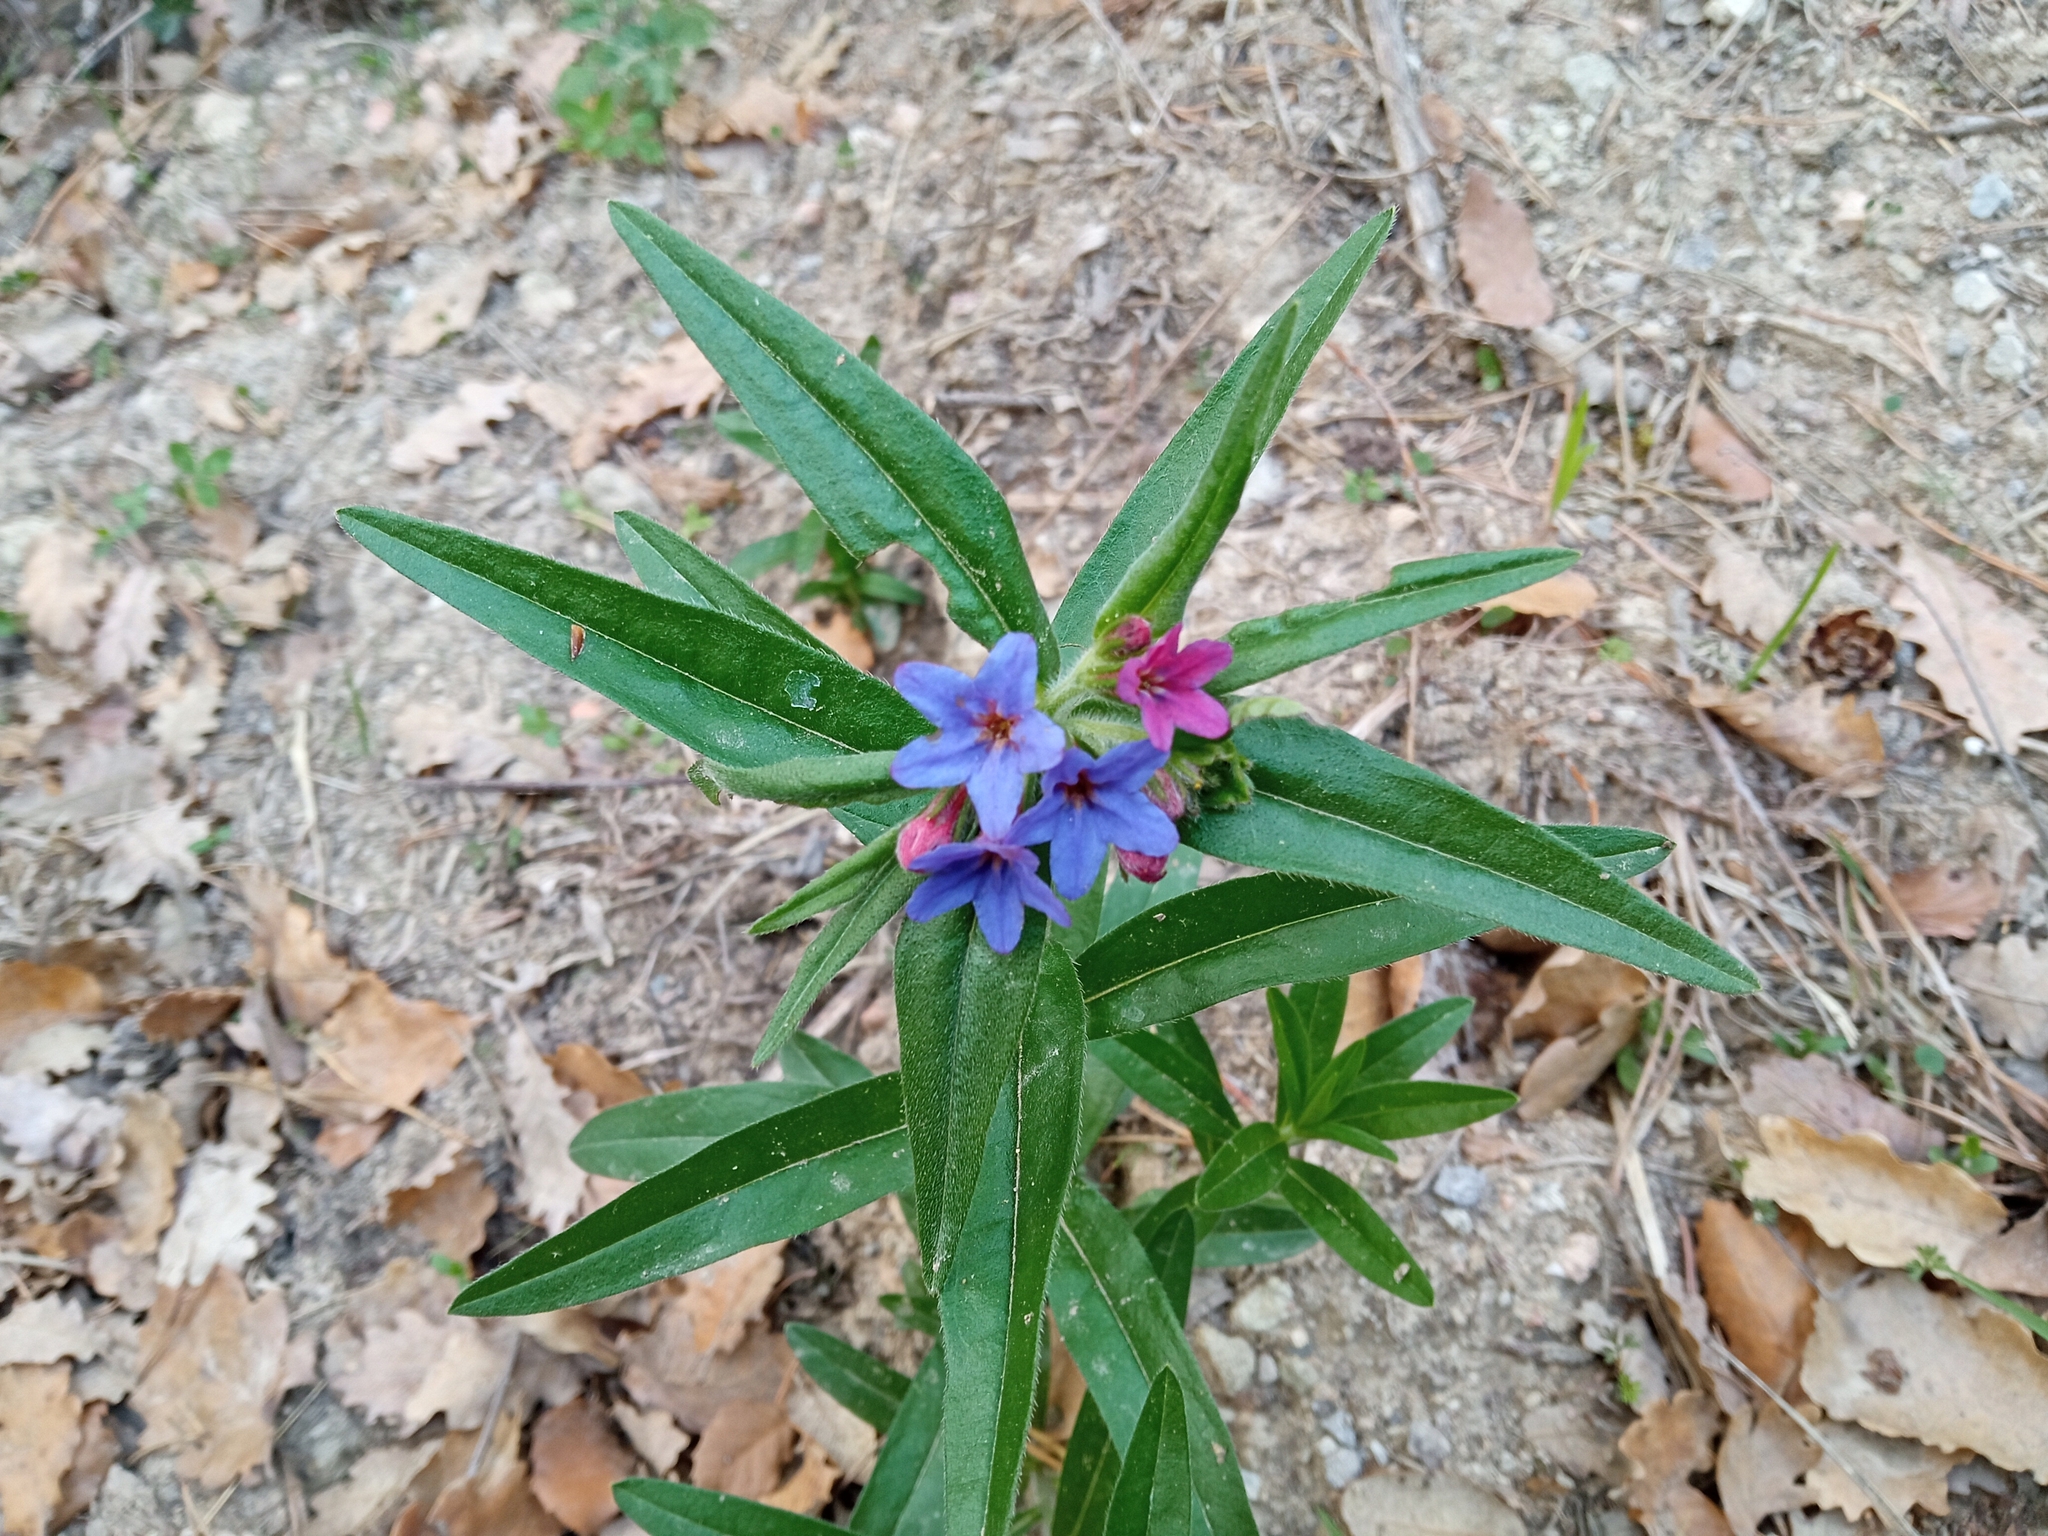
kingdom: Plantae
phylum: Tracheophyta
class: Magnoliopsida
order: Boraginales
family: Boraginaceae
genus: Aegonychon
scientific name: Aegonychon purpurocaeruleum
